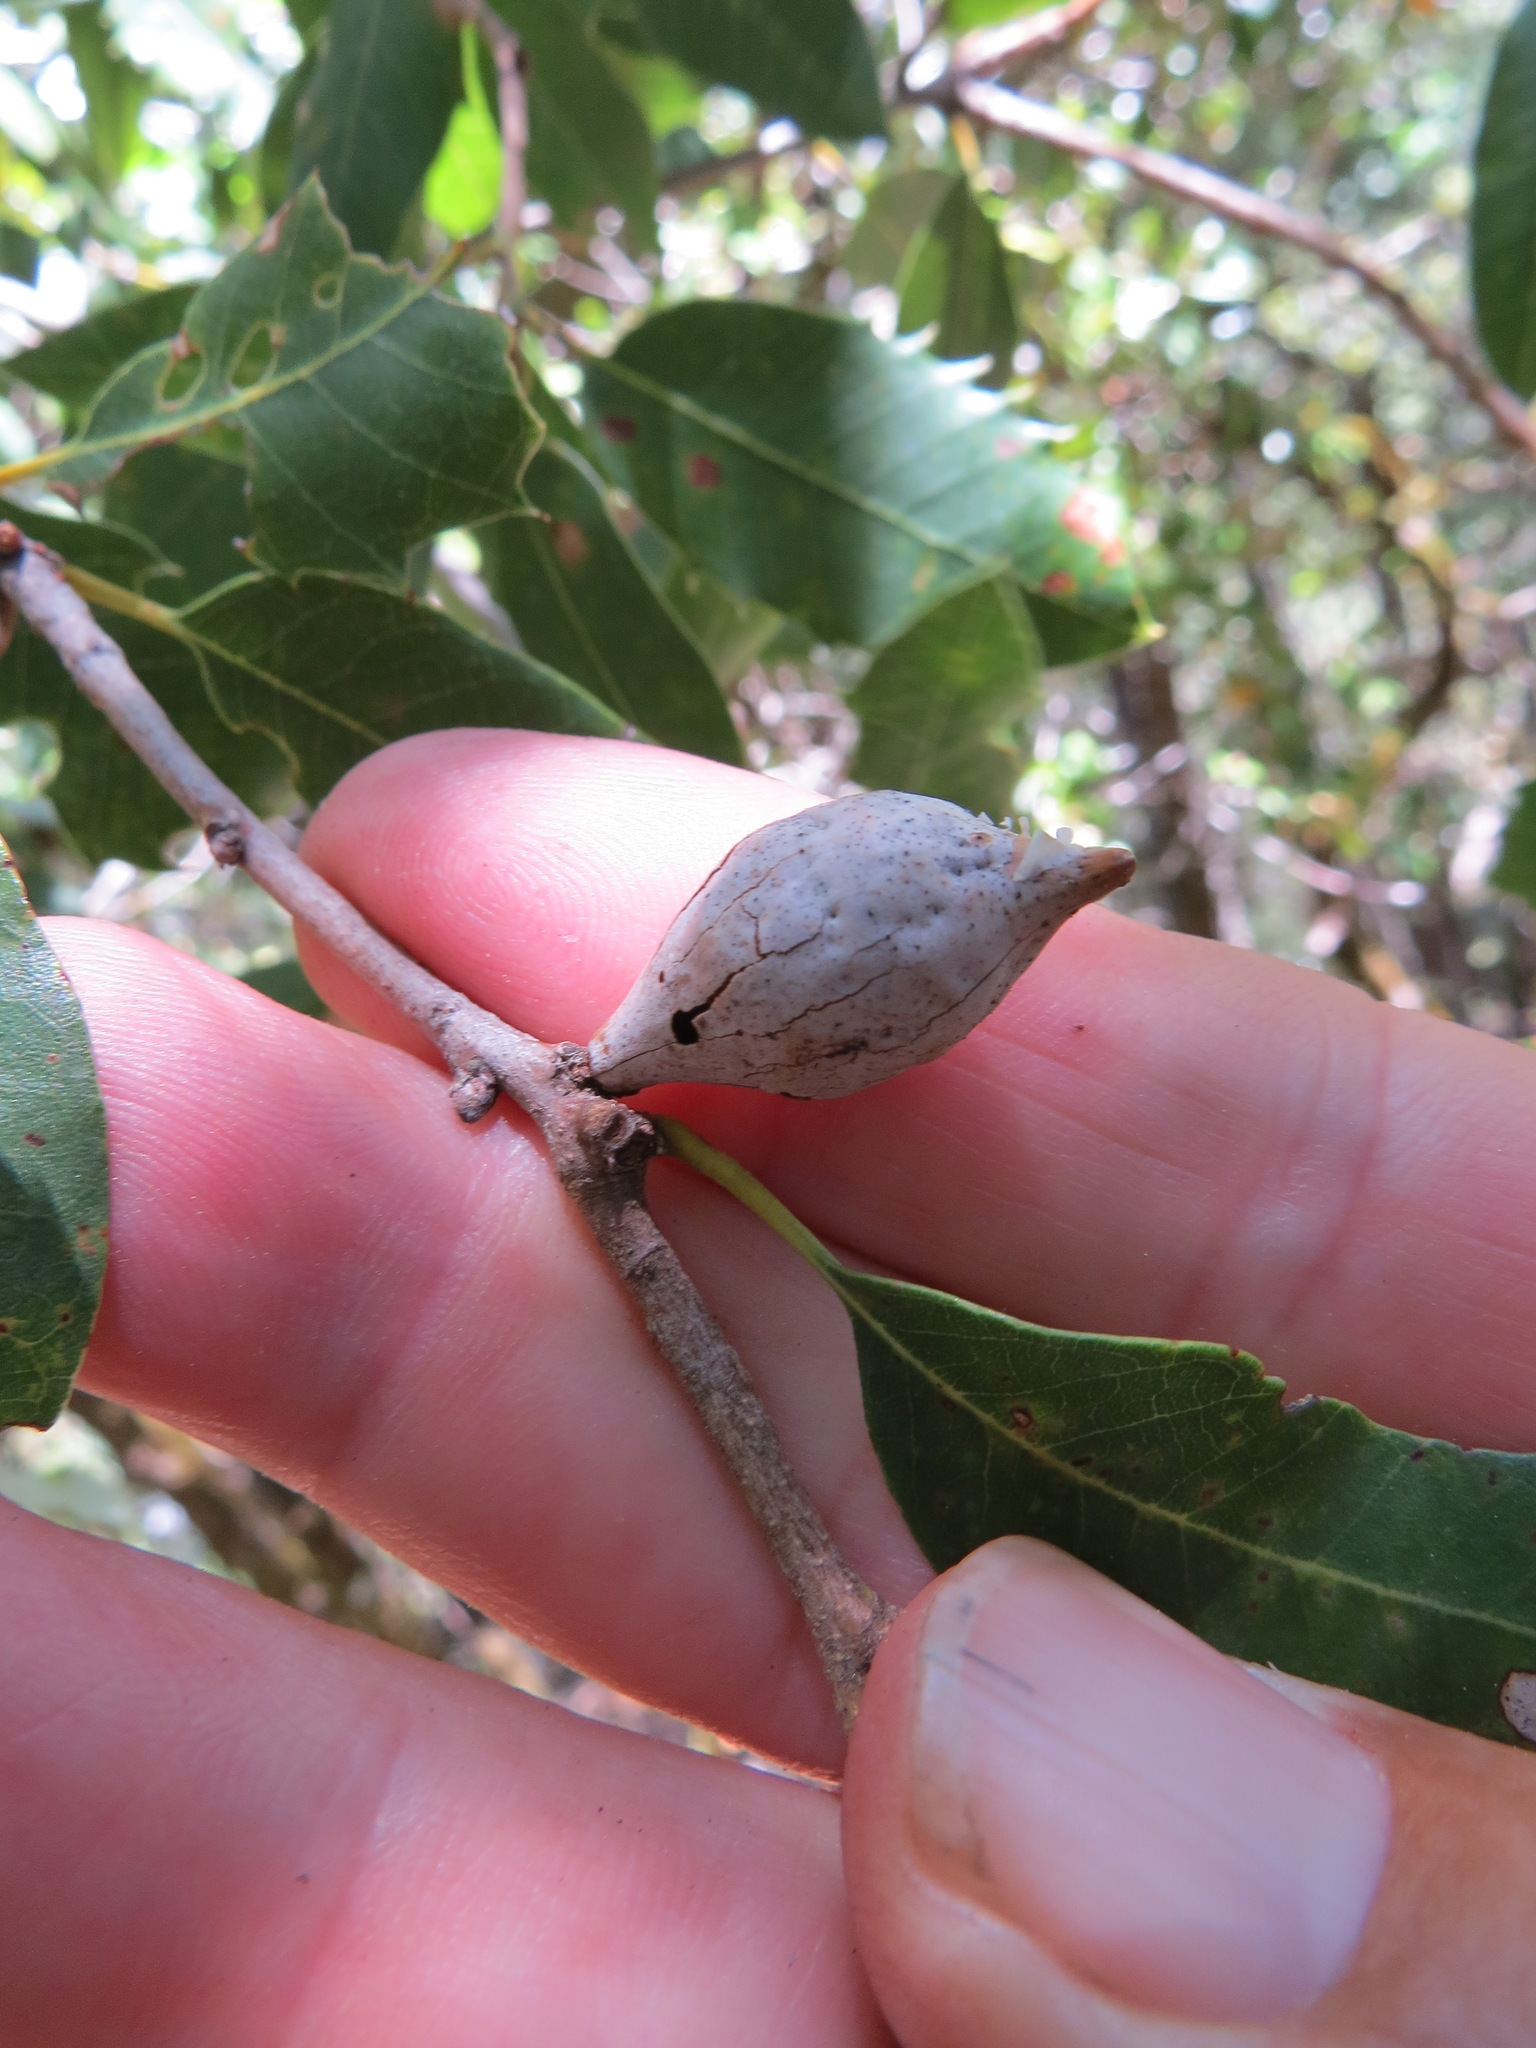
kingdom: Animalia
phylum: Arthropoda
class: Insecta
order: Hymenoptera
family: Cynipidae
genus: Heteroecus
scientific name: Heteroecus pacificus
